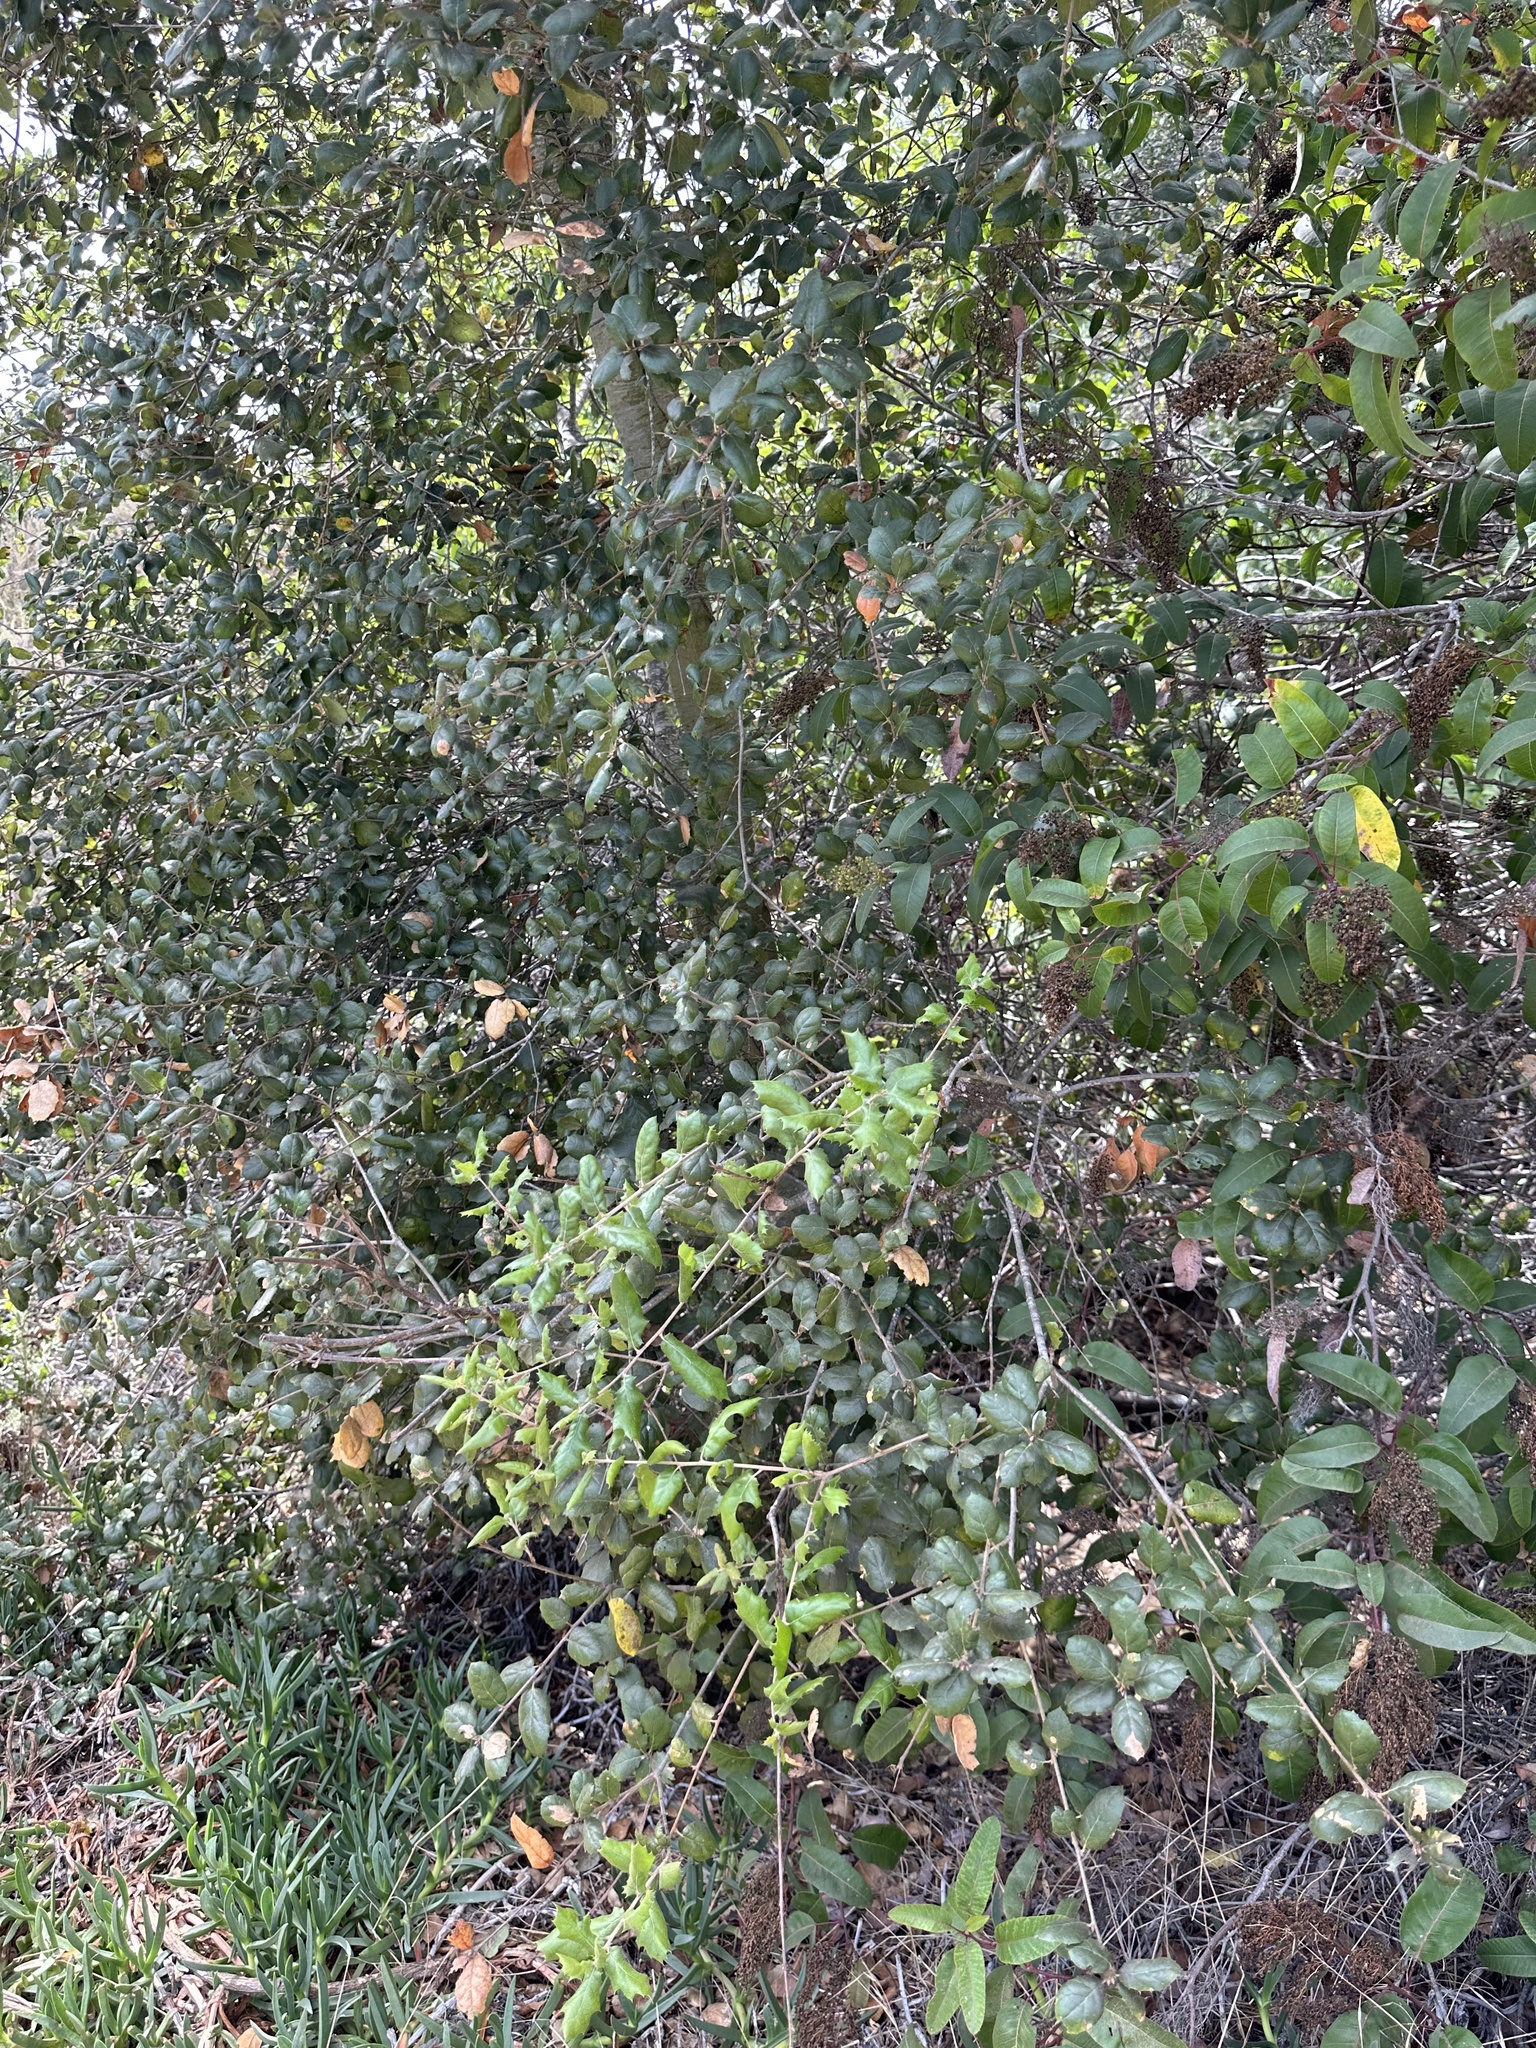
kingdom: Plantae
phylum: Tracheophyta
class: Magnoliopsida
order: Fagales
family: Fagaceae
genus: Quercus
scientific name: Quercus agrifolia
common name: California live oak
